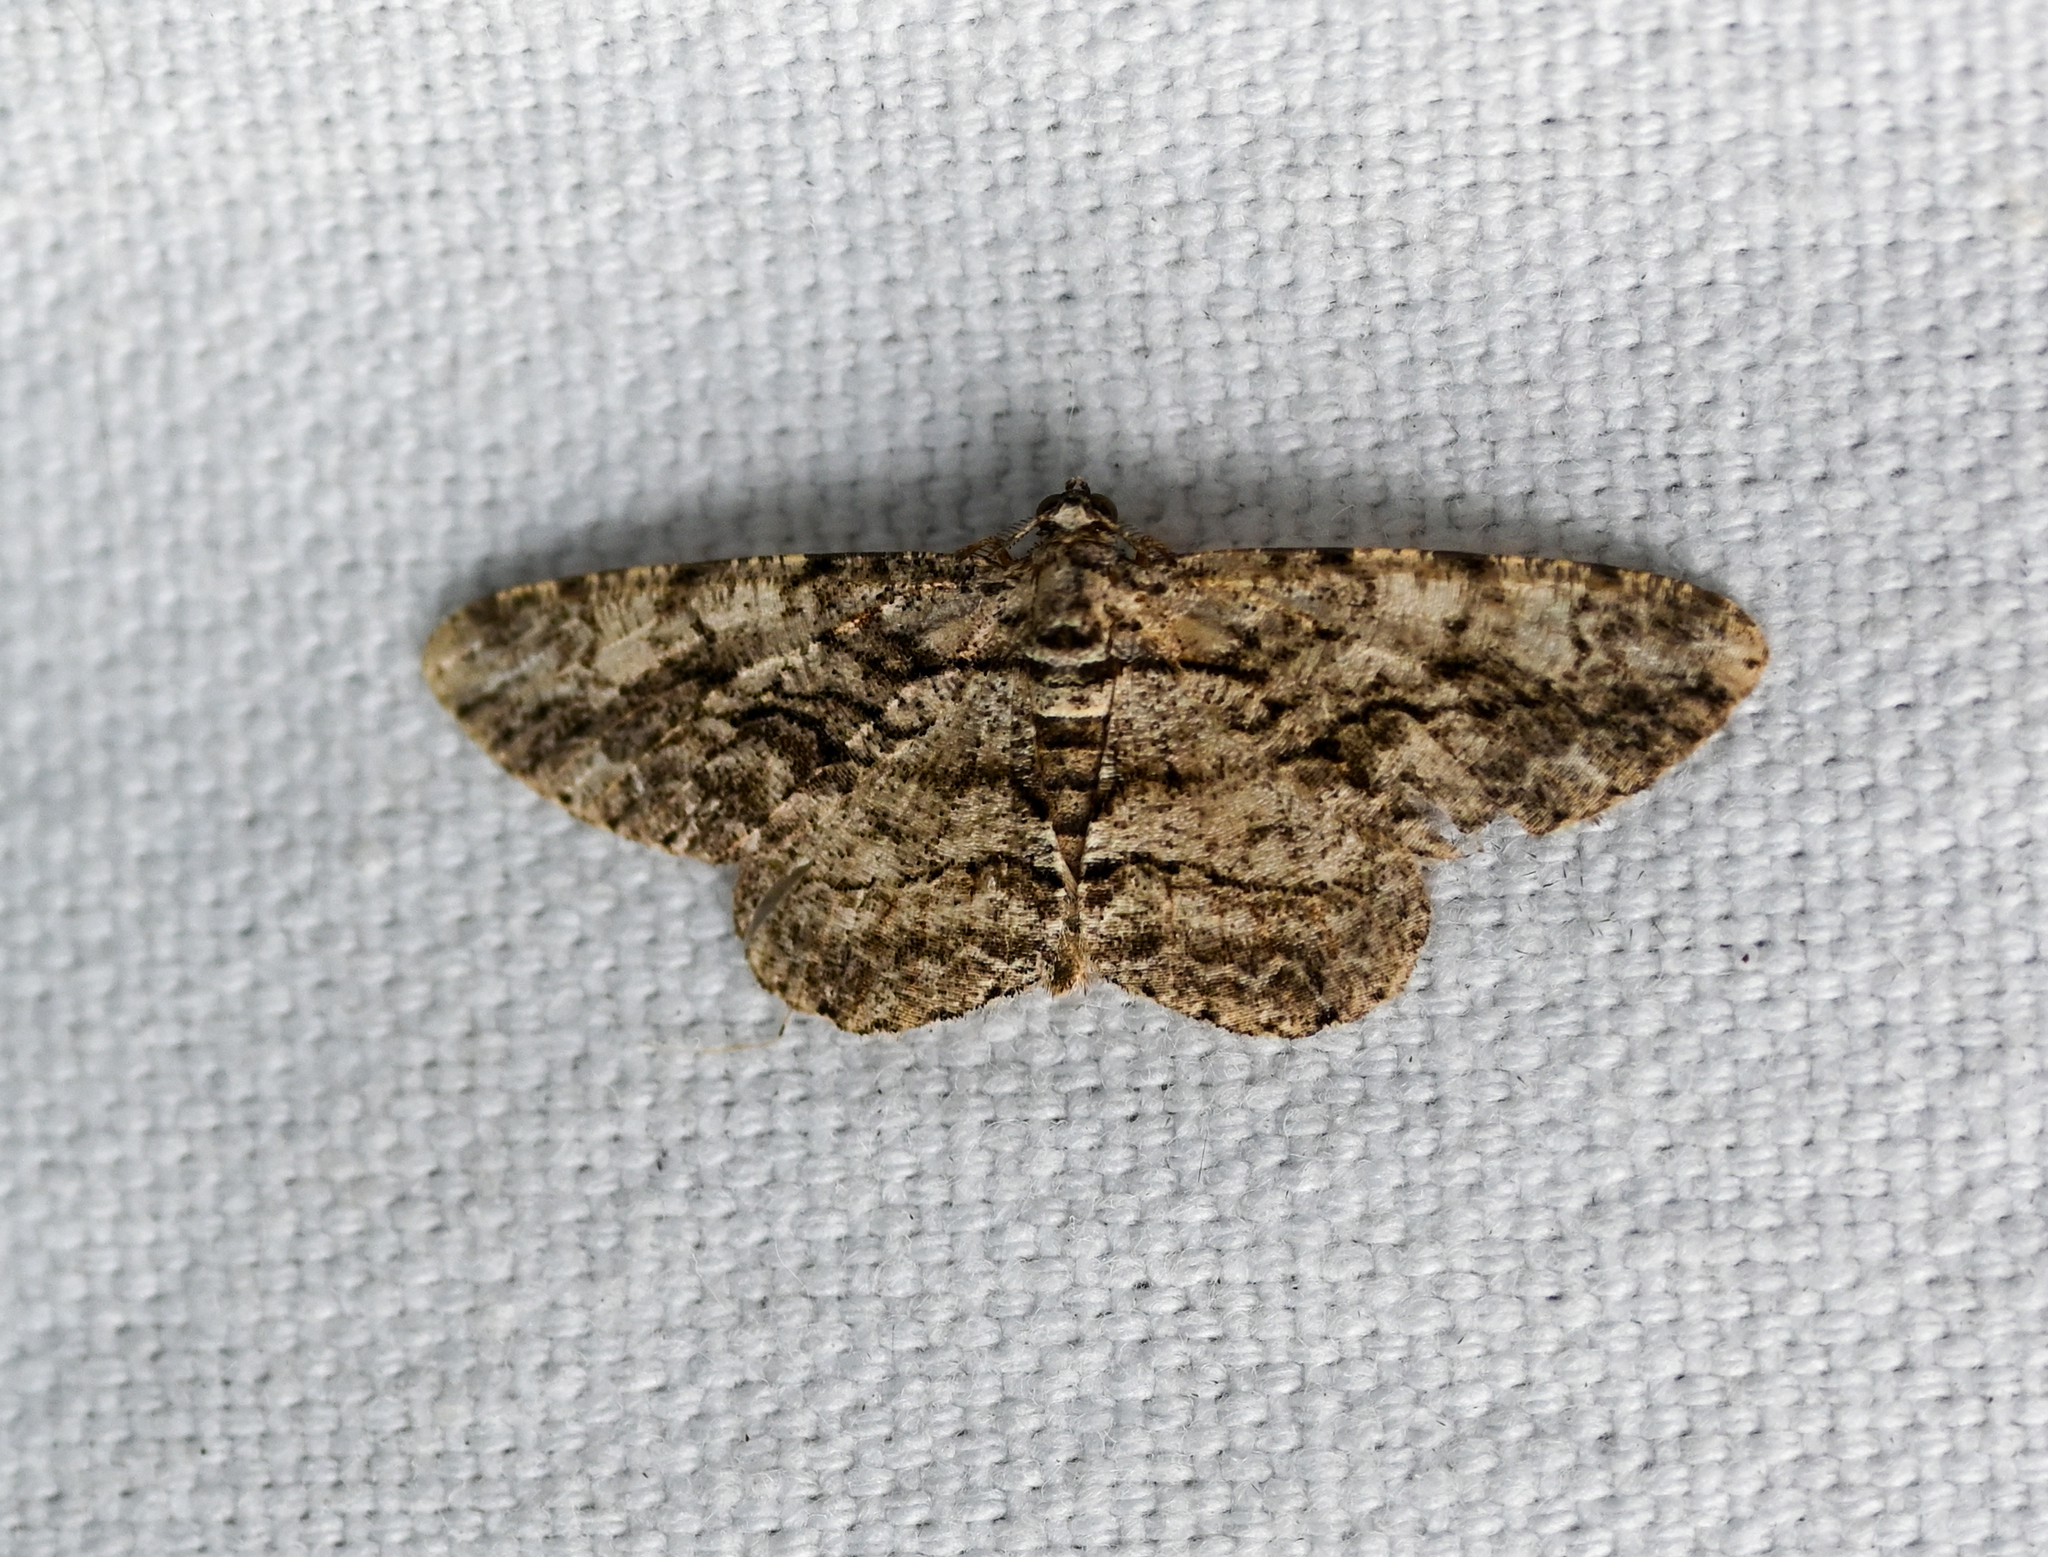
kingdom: Animalia
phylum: Arthropoda
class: Insecta
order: Lepidoptera
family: Geometridae
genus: Anavitrinella
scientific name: Anavitrinella pampinaria
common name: Common gray
